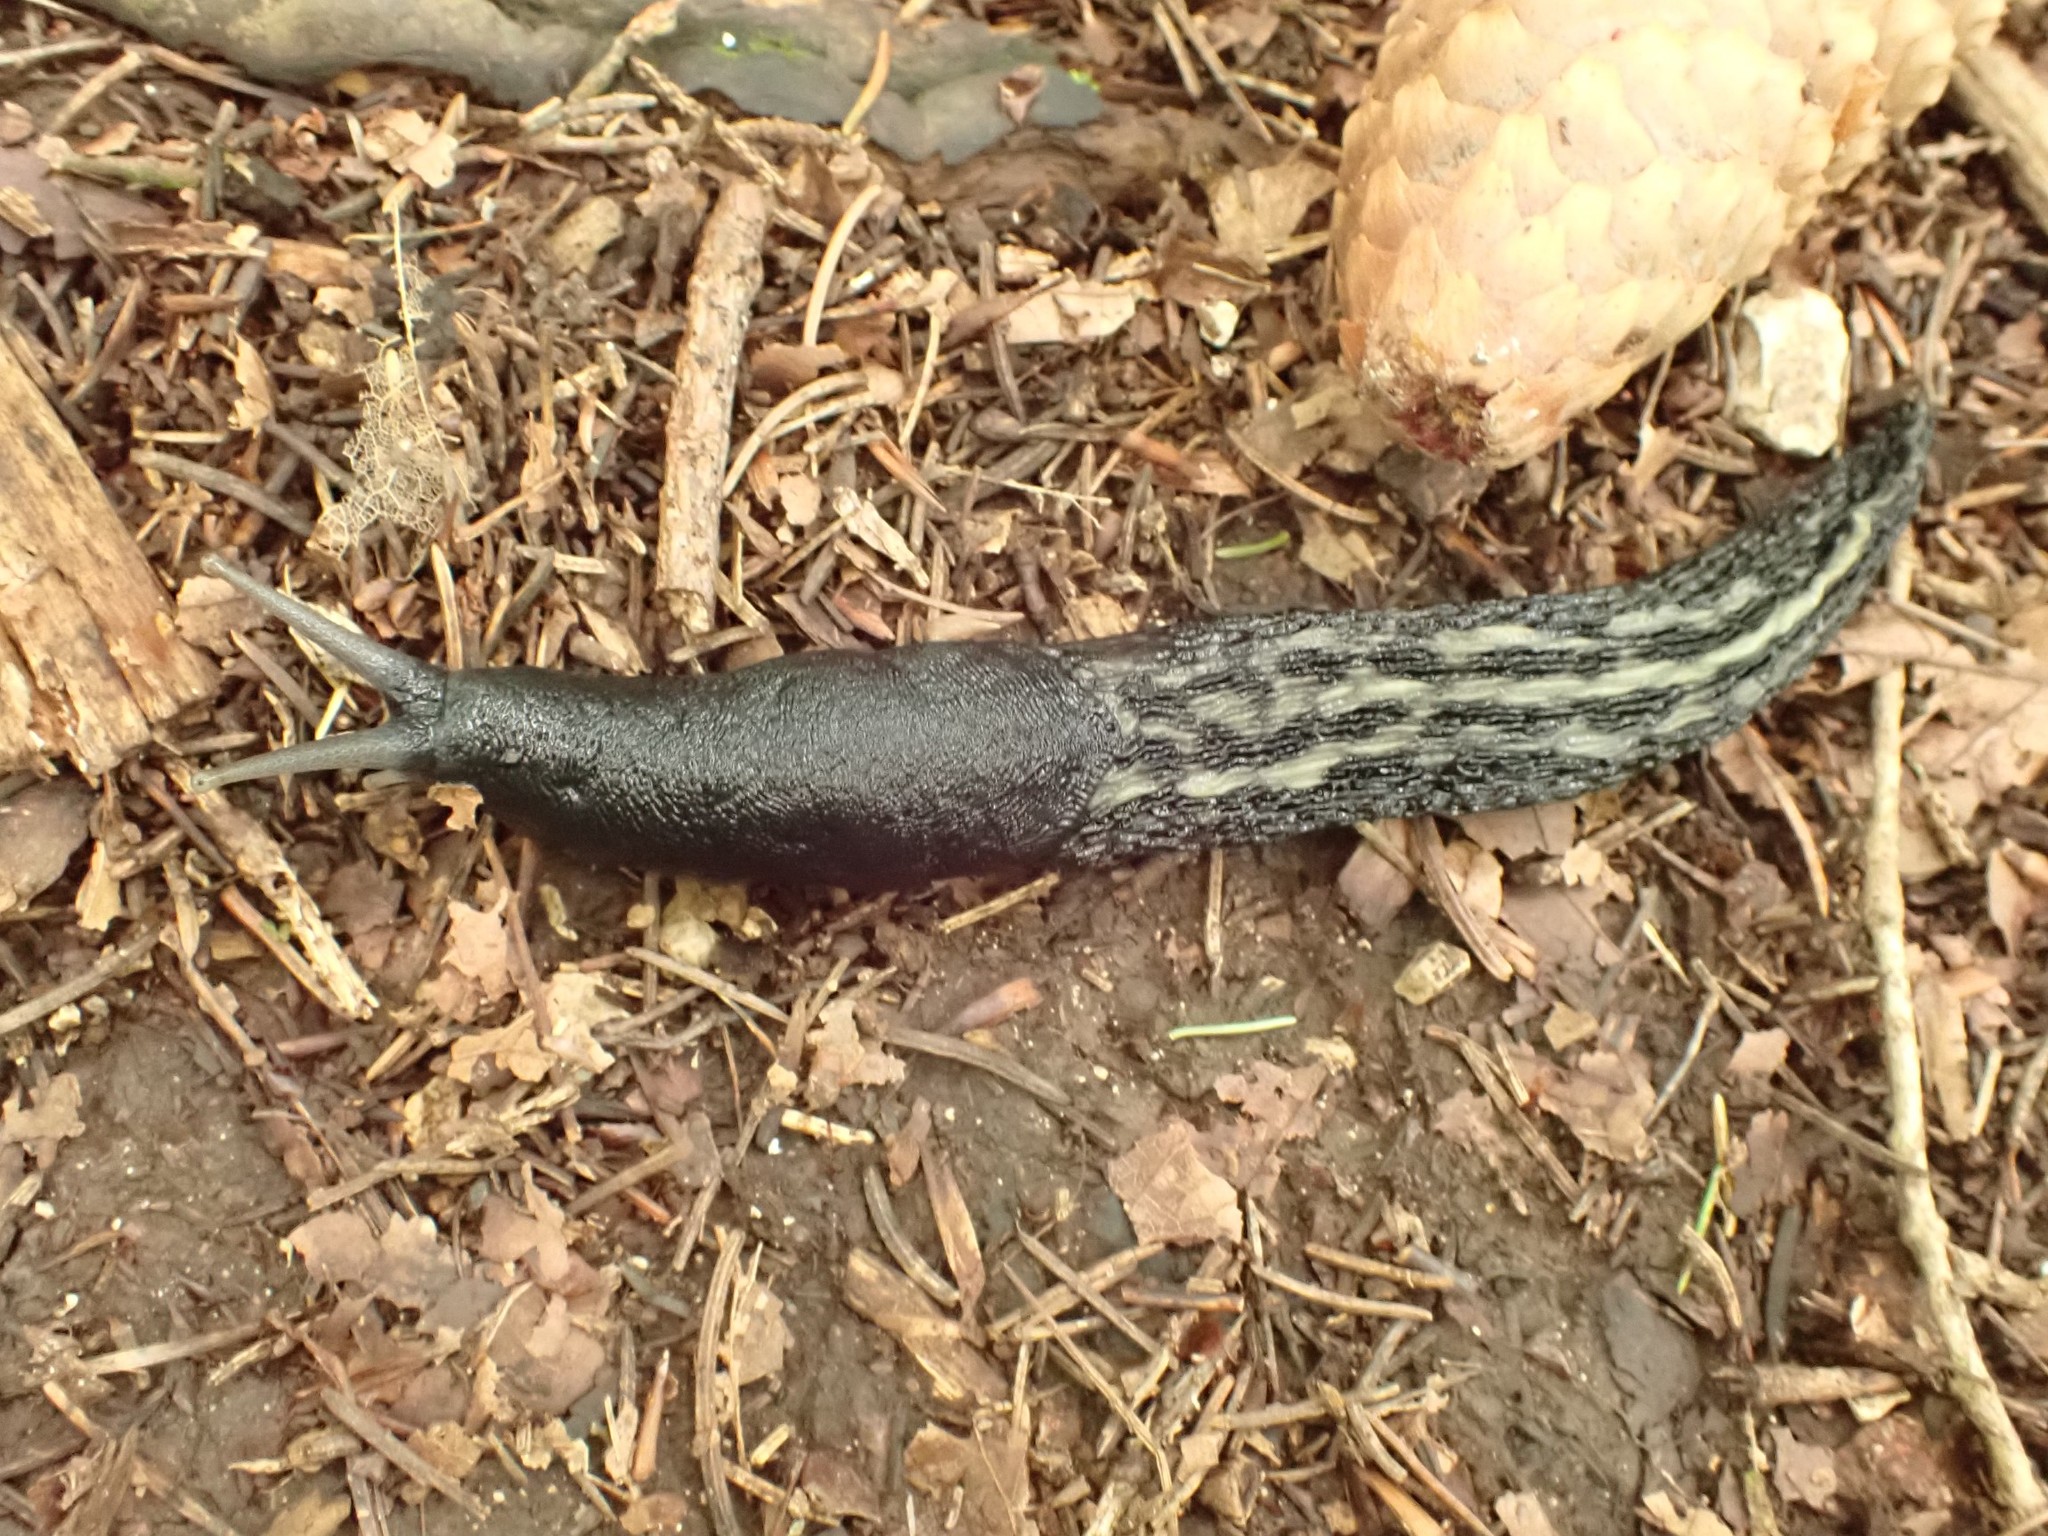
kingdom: Animalia
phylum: Mollusca
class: Gastropoda
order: Stylommatophora
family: Limacidae
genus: Limax
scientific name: Limax cinereoniger
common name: Ash-black slug
